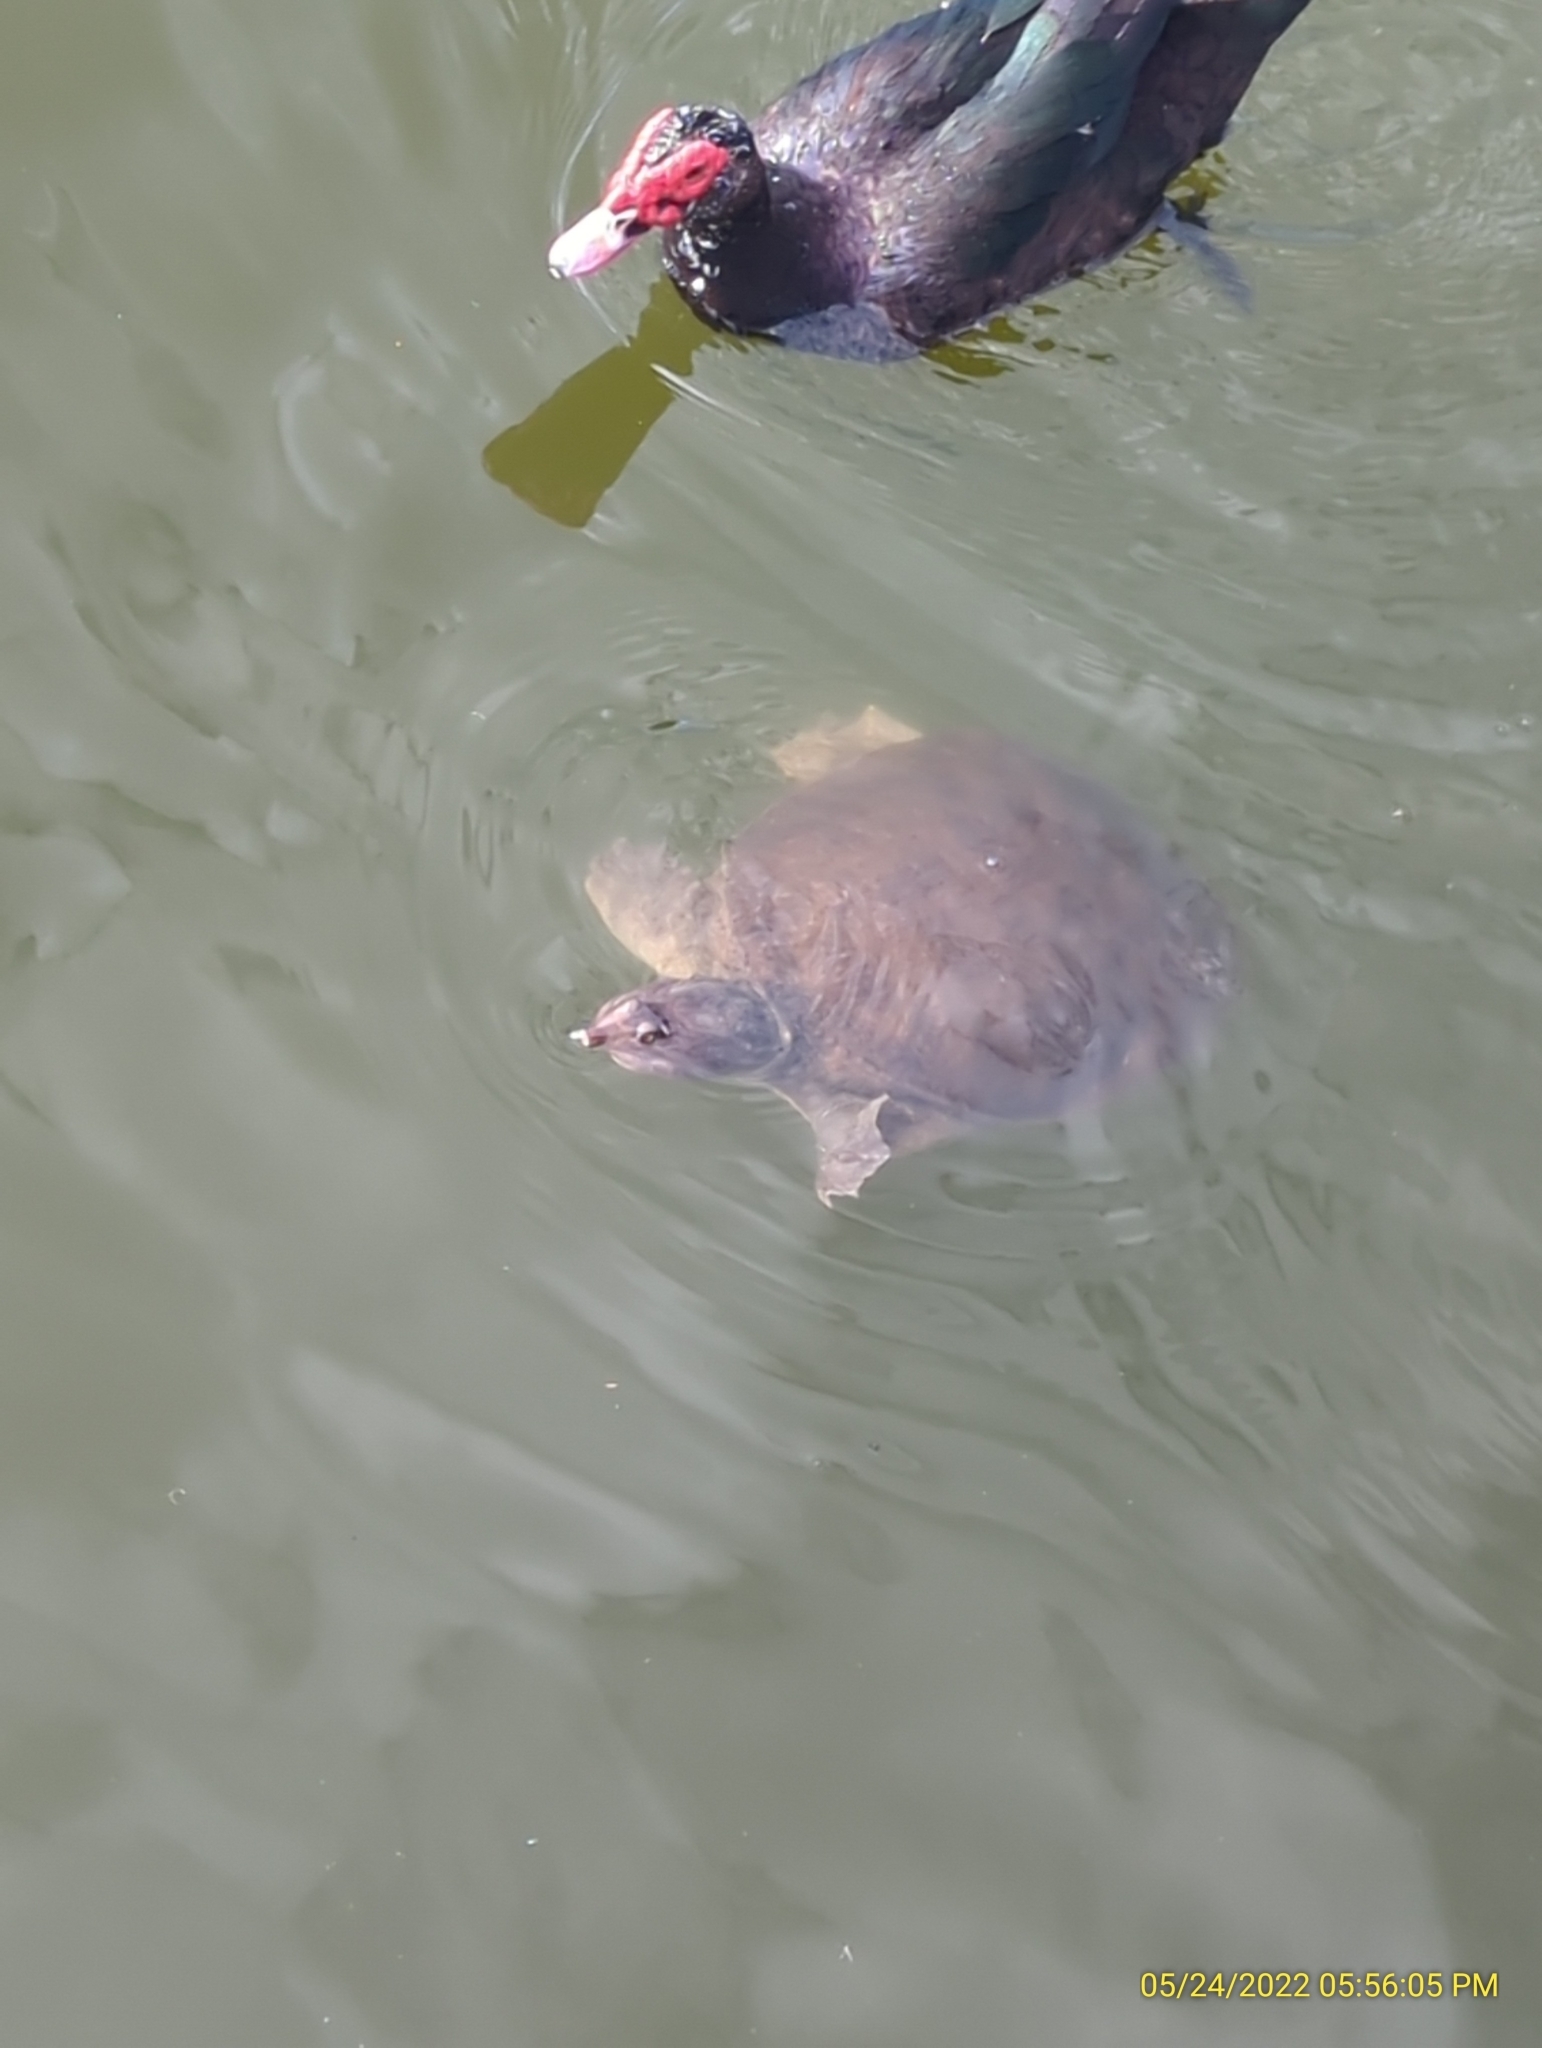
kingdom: Animalia
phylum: Chordata
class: Testudines
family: Trionychidae
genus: Apalone
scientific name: Apalone ferox
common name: Florida softshell turtle
